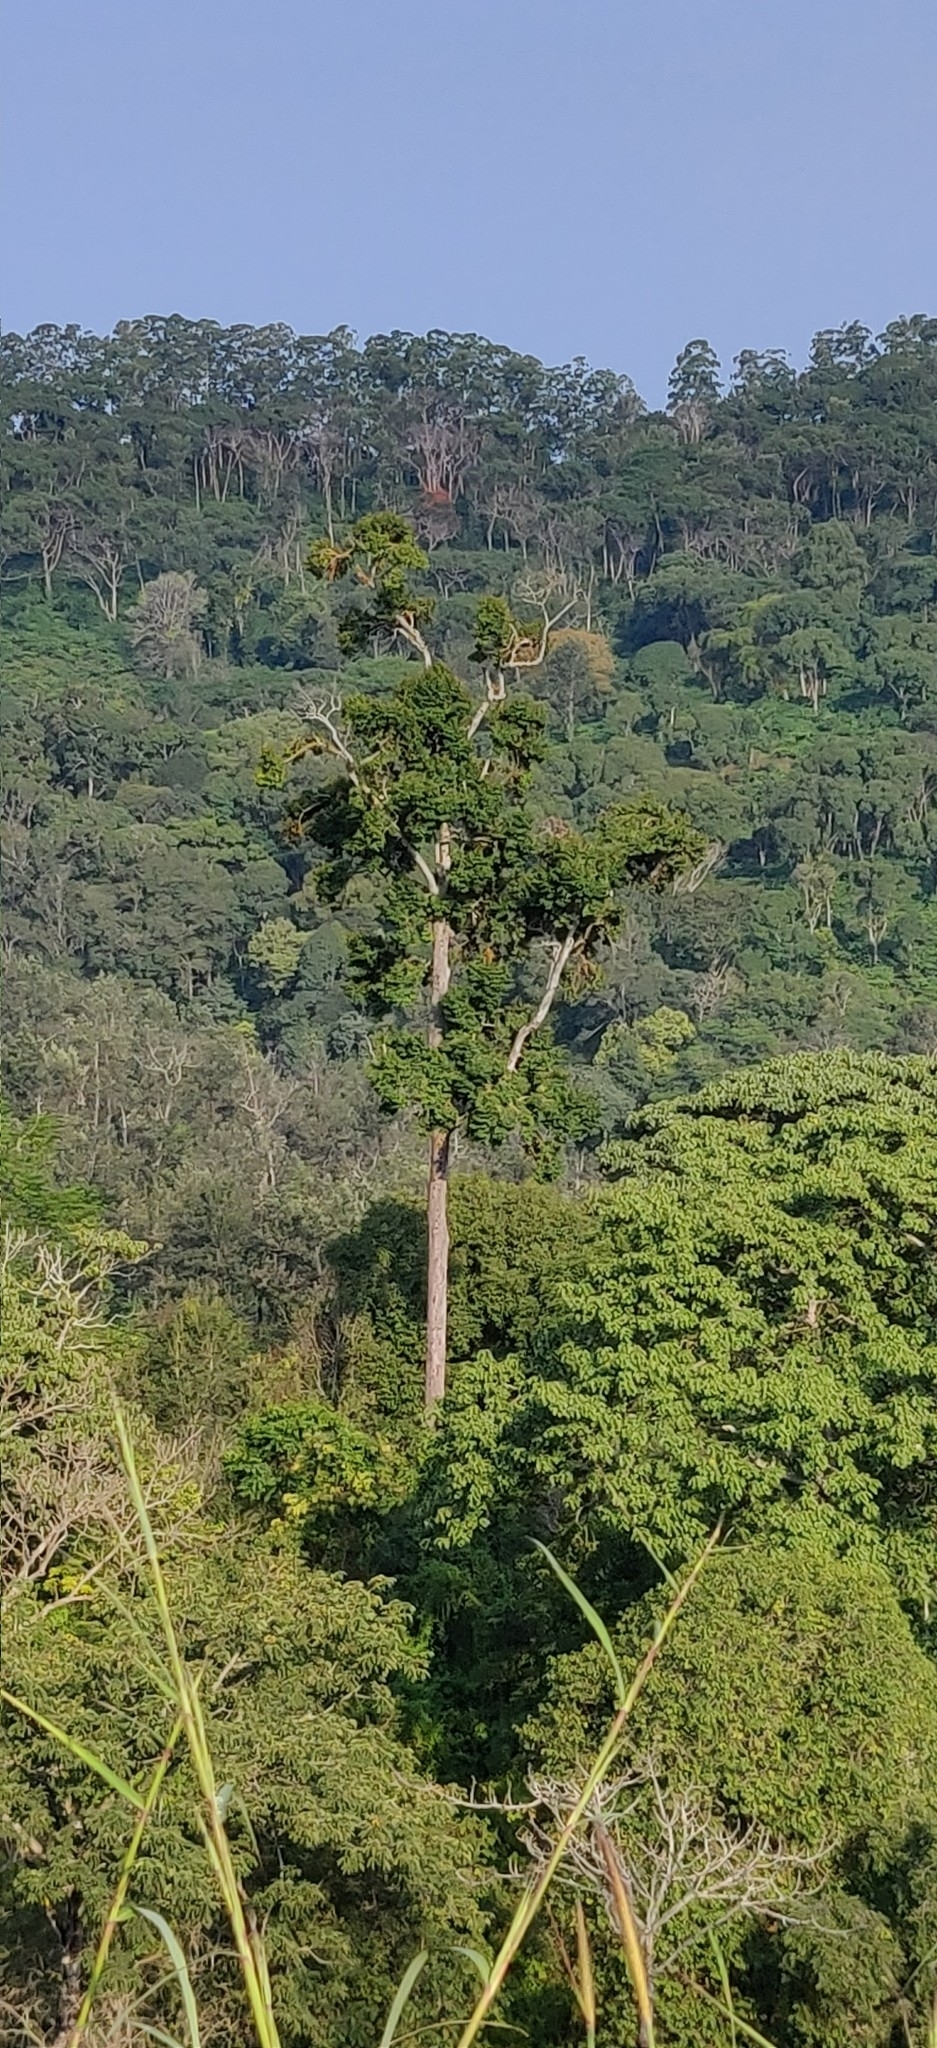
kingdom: Plantae
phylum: Tracheophyta
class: Magnoliopsida
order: Malvales
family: Malvaceae
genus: Cullenia
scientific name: Cullenia exarillata
